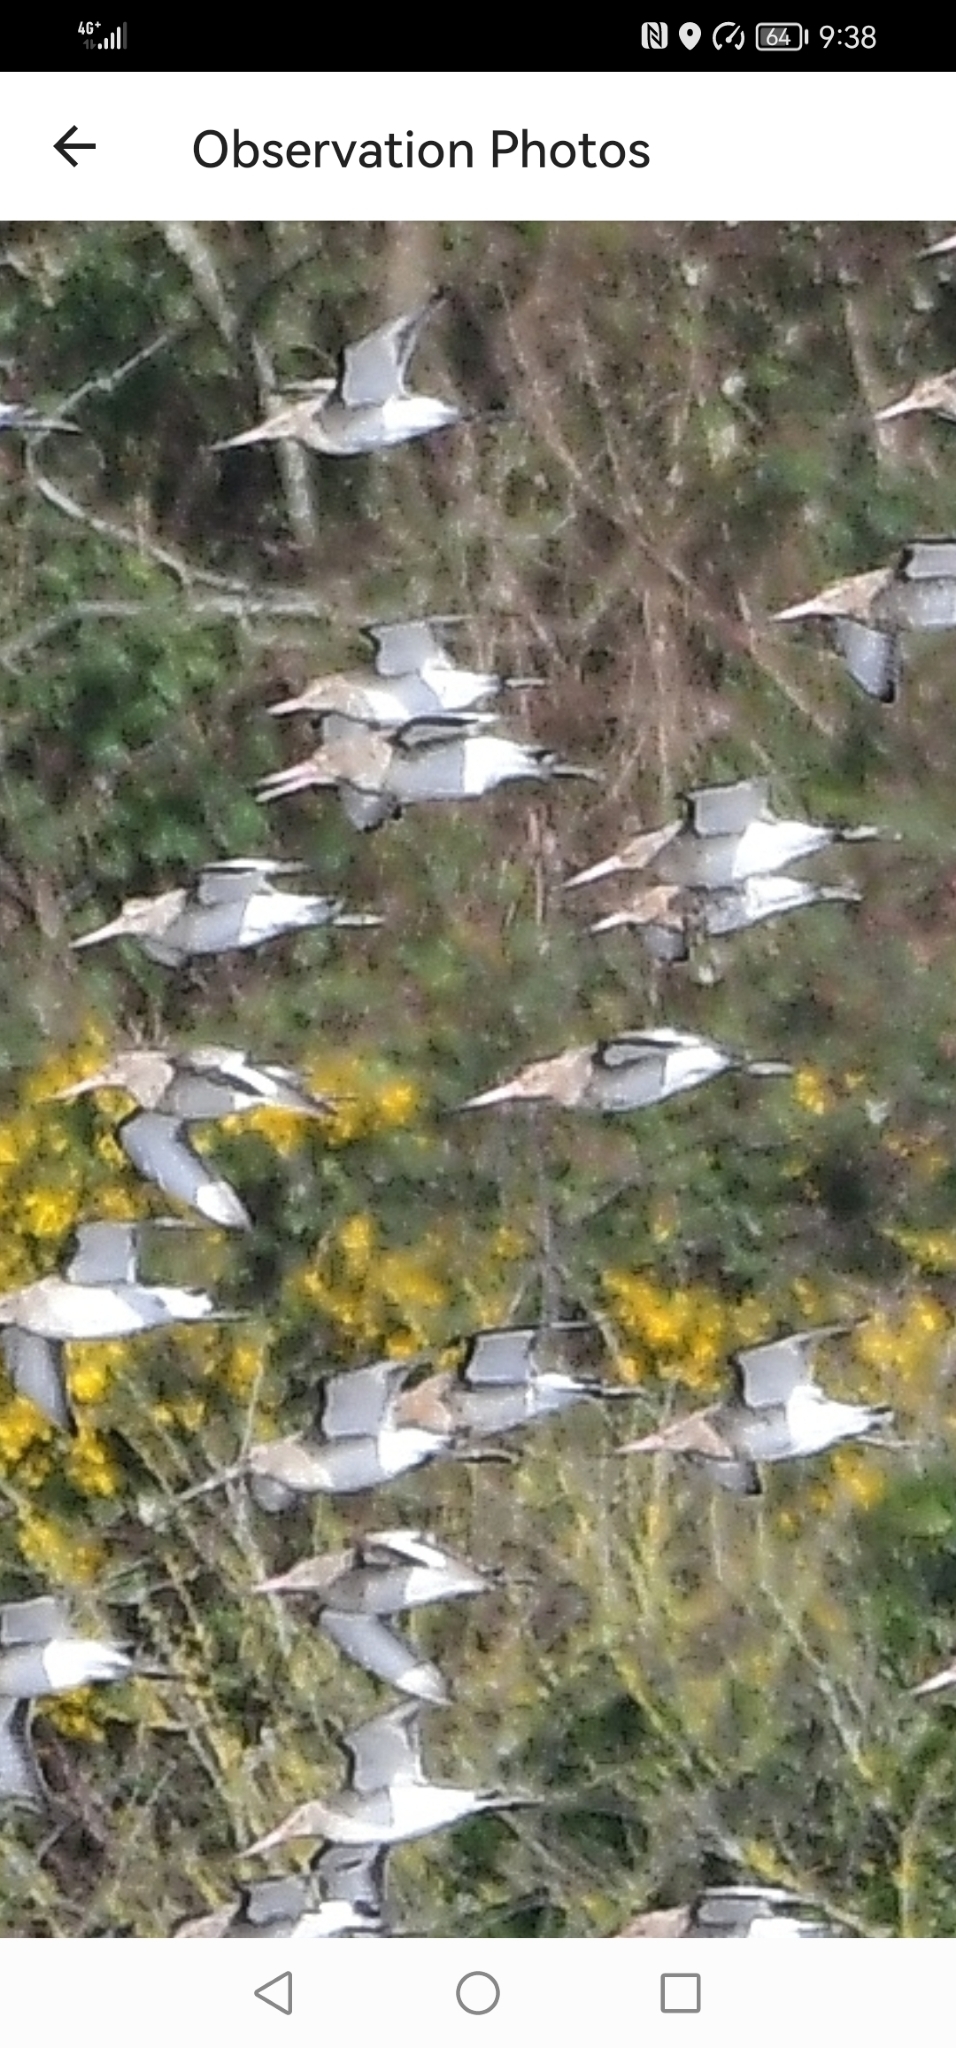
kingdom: Animalia
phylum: Chordata
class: Aves
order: Charadriiformes
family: Scolopacidae
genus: Limosa
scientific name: Limosa limosa
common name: Black-tailed godwit
